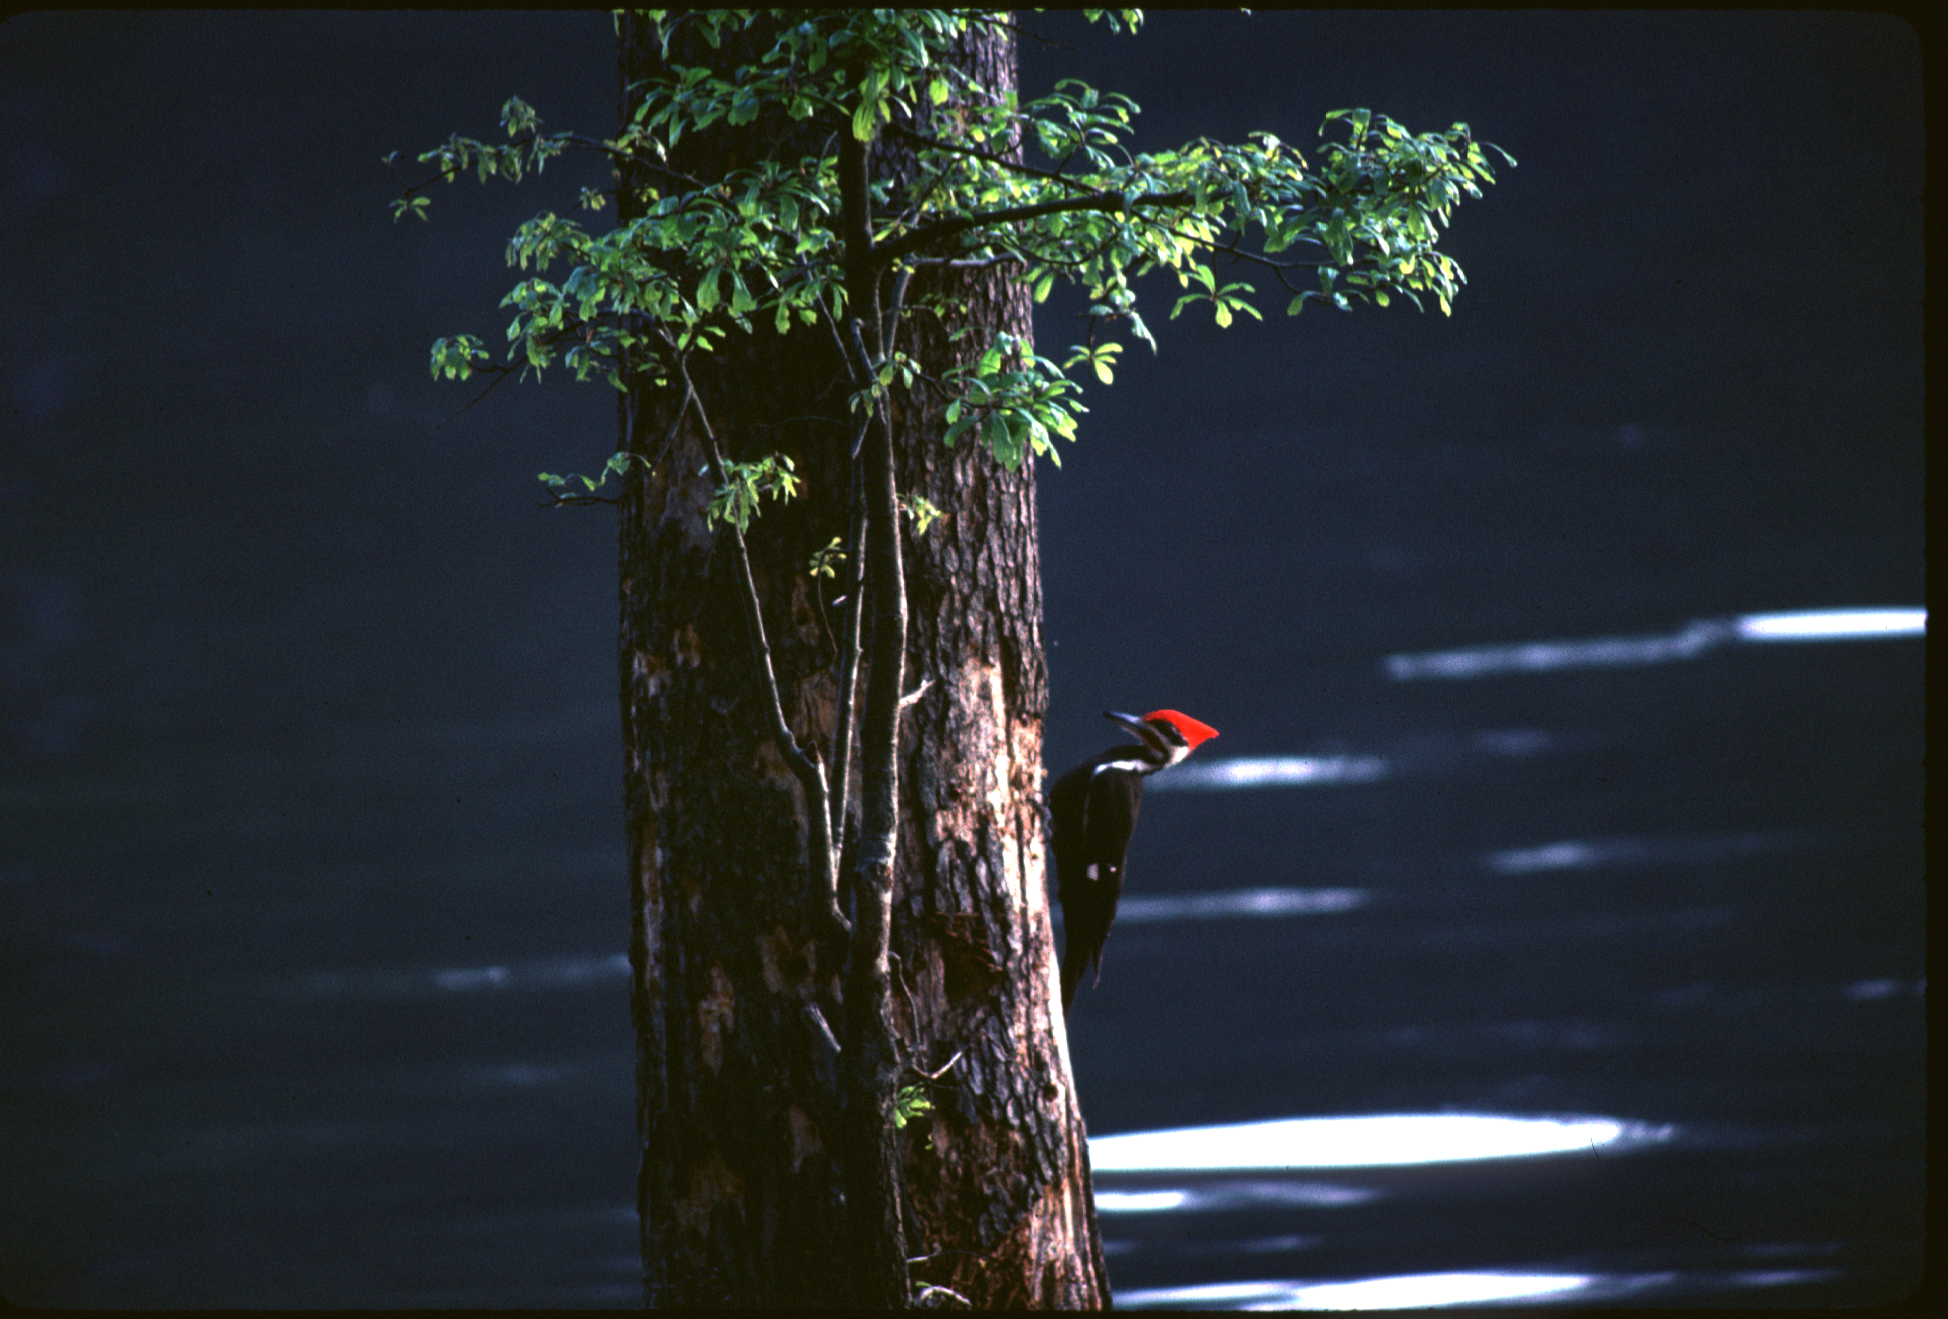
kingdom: Animalia
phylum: Chordata
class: Aves
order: Piciformes
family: Picidae
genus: Dryocopus
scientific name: Dryocopus pileatus
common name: Pileated woodpecker
